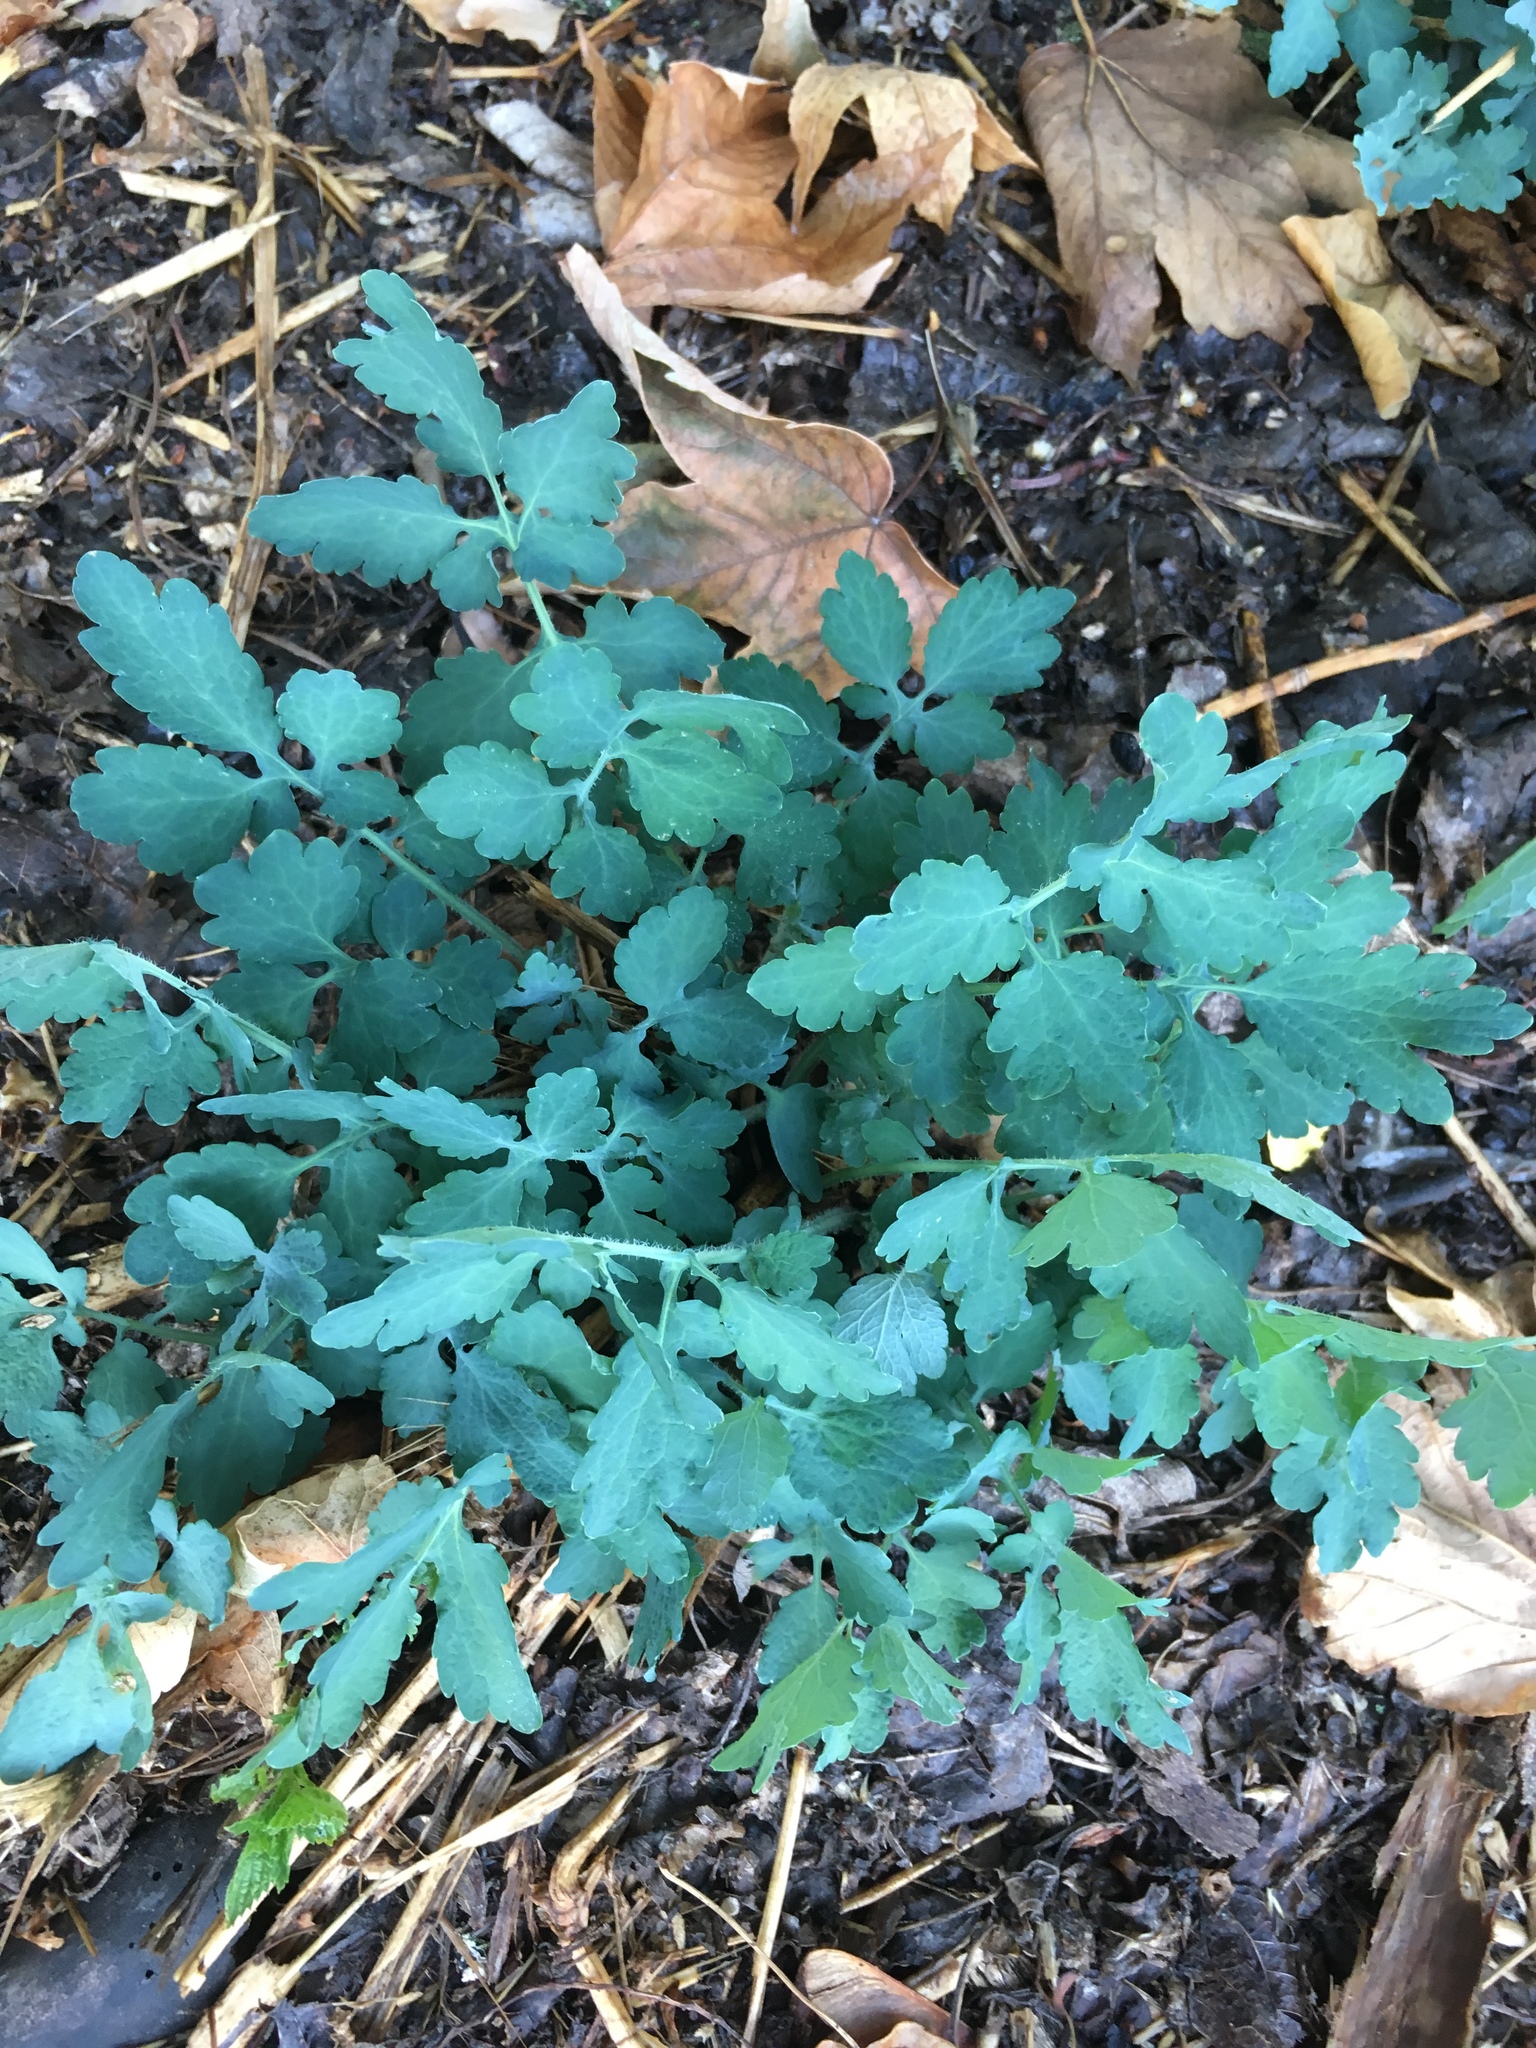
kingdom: Plantae
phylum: Tracheophyta
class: Magnoliopsida
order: Ranunculales
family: Papaveraceae
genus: Chelidonium
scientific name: Chelidonium majus
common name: Greater celandine
